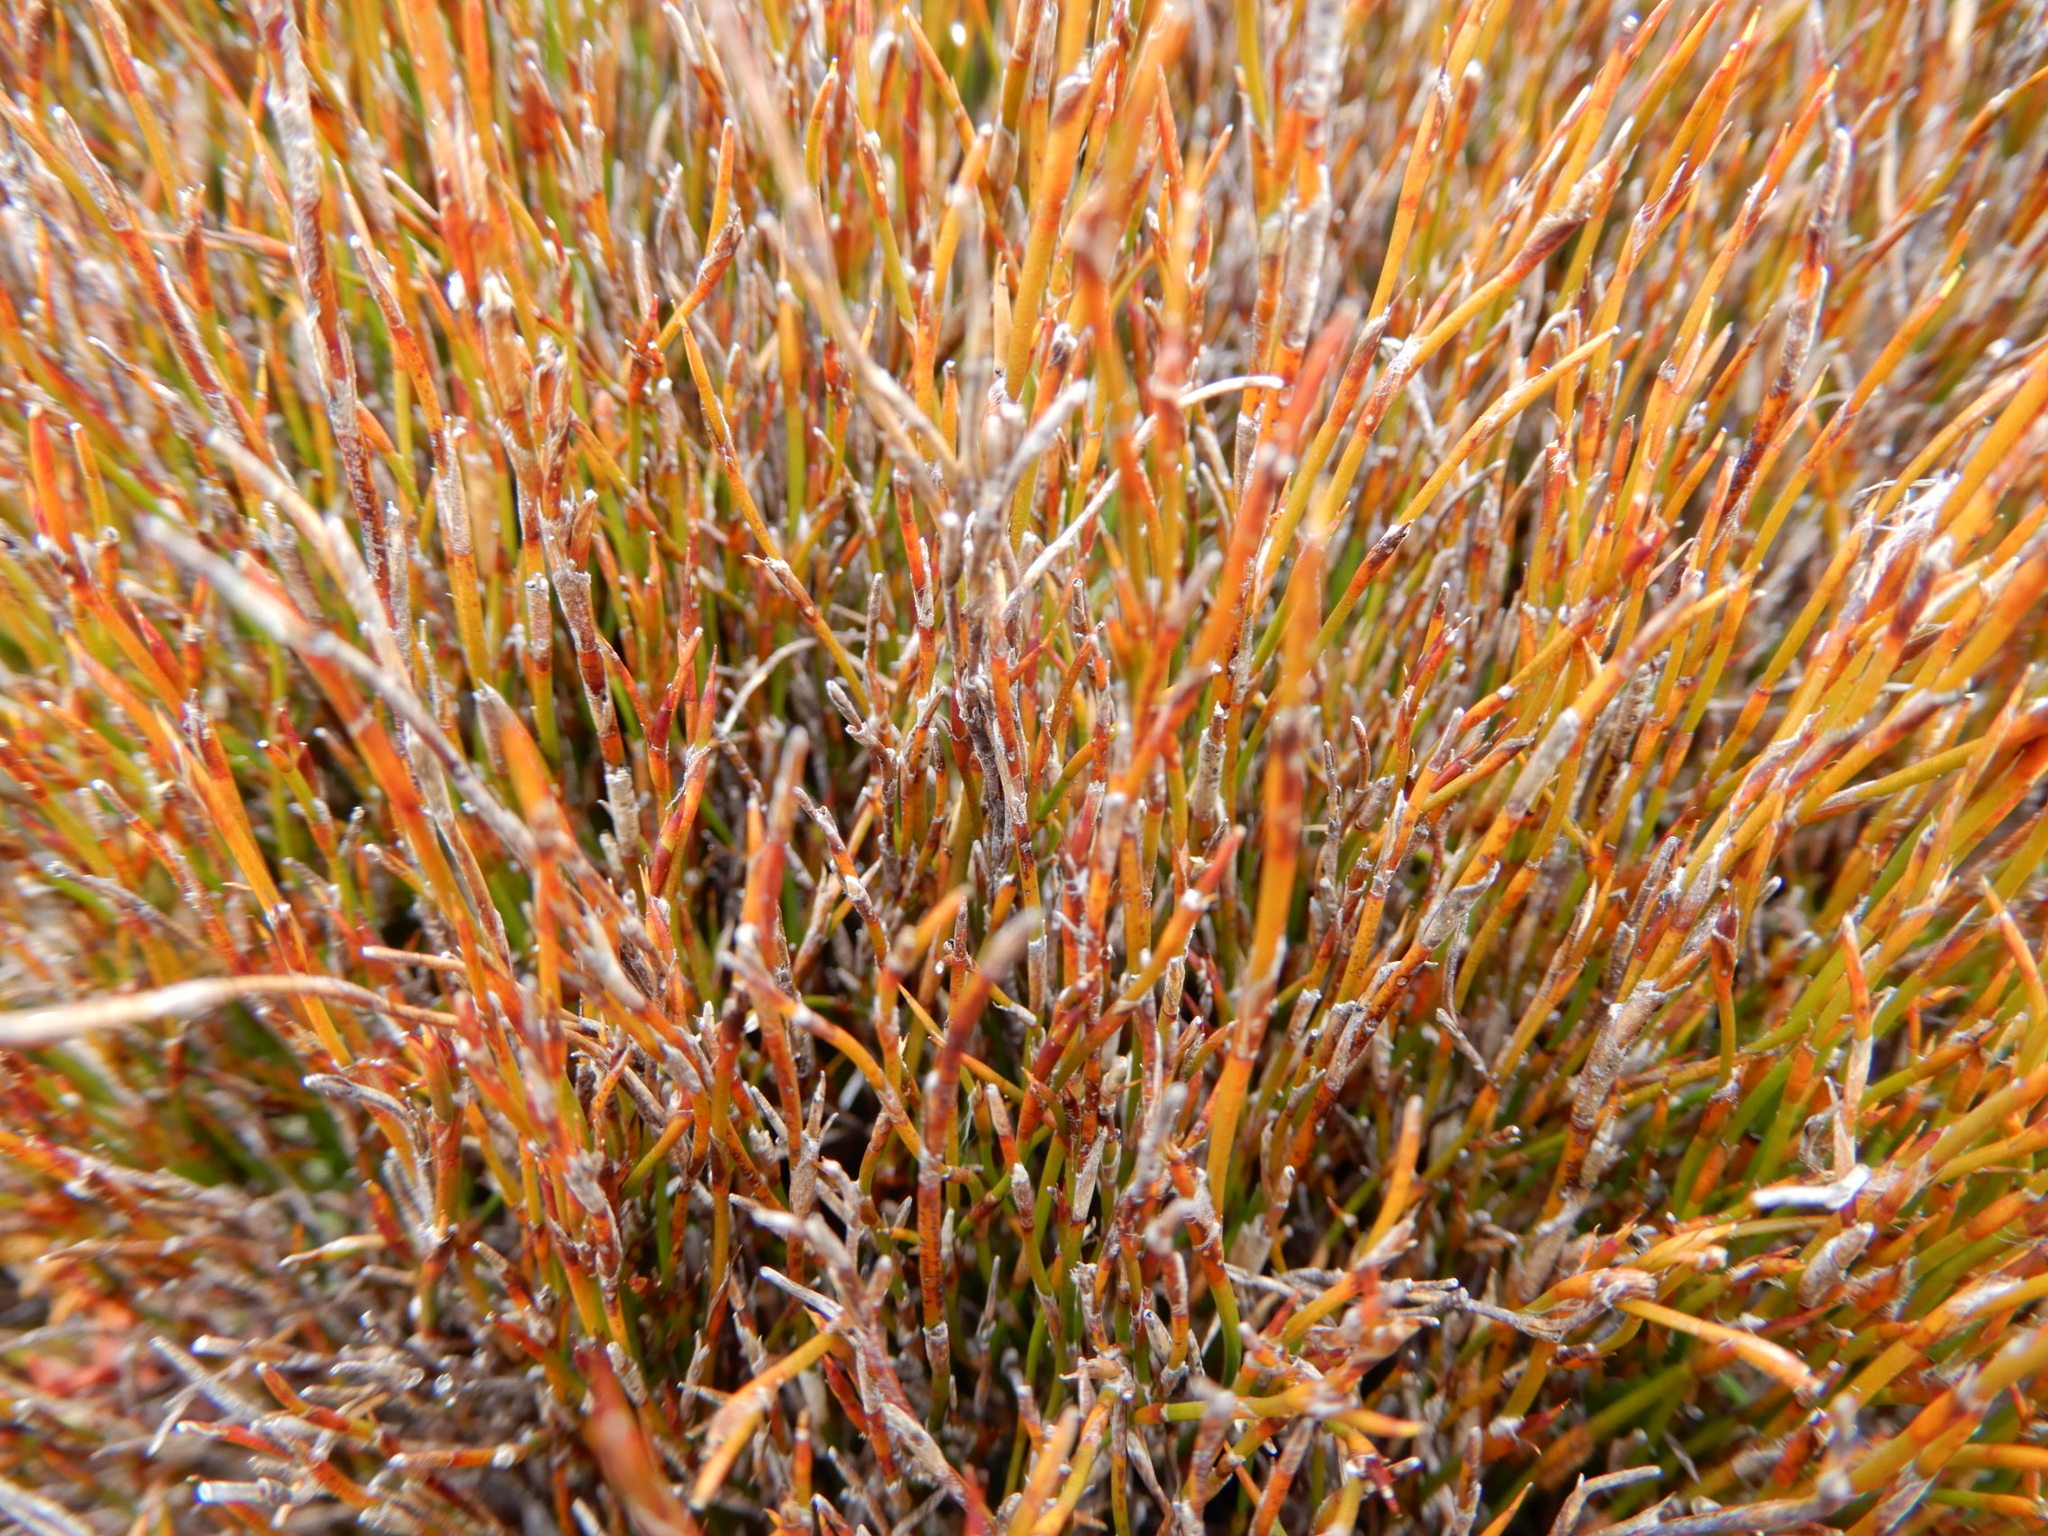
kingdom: Plantae
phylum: Tracheophyta
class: Liliopsida
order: Poales
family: Restionaceae
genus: Empodisma
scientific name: Empodisma minus
